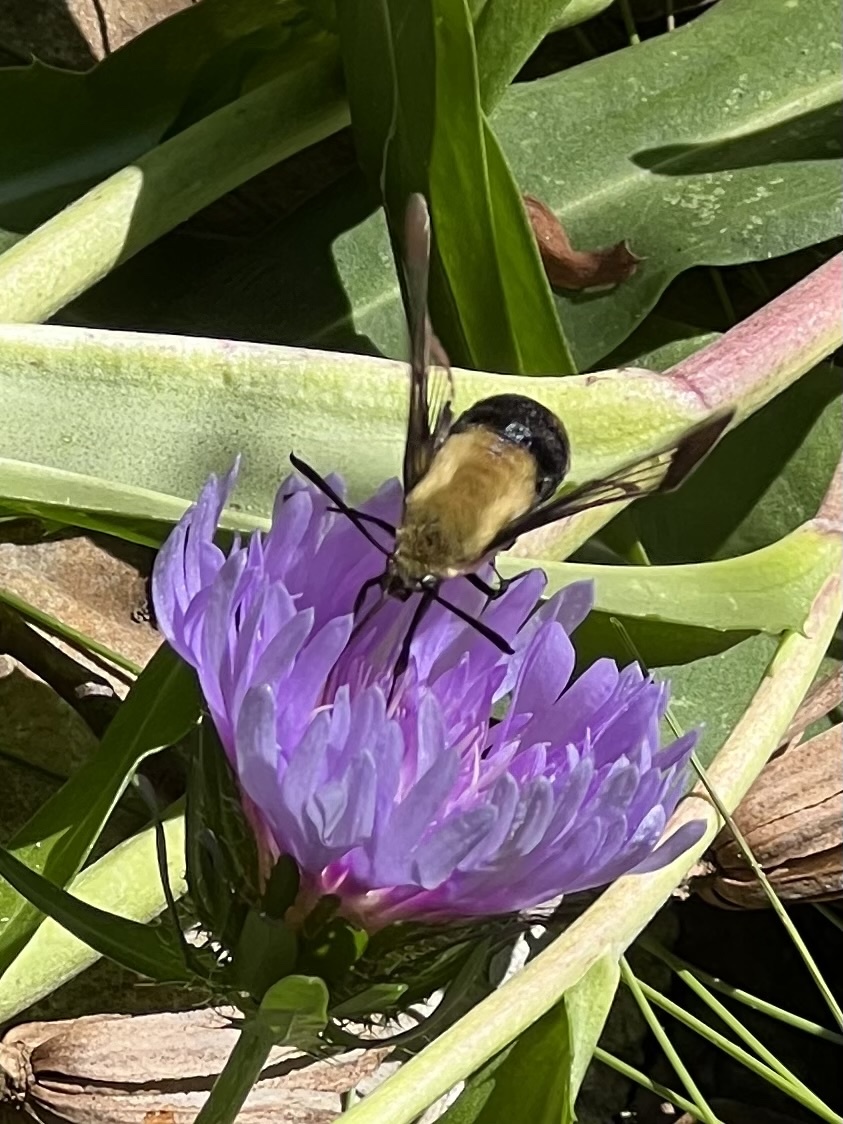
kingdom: Animalia
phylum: Arthropoda
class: Insecta
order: Lepidoptera
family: Sphingidae
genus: Hemaris
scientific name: Hemaris diffinis
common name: Bumblebee moth
